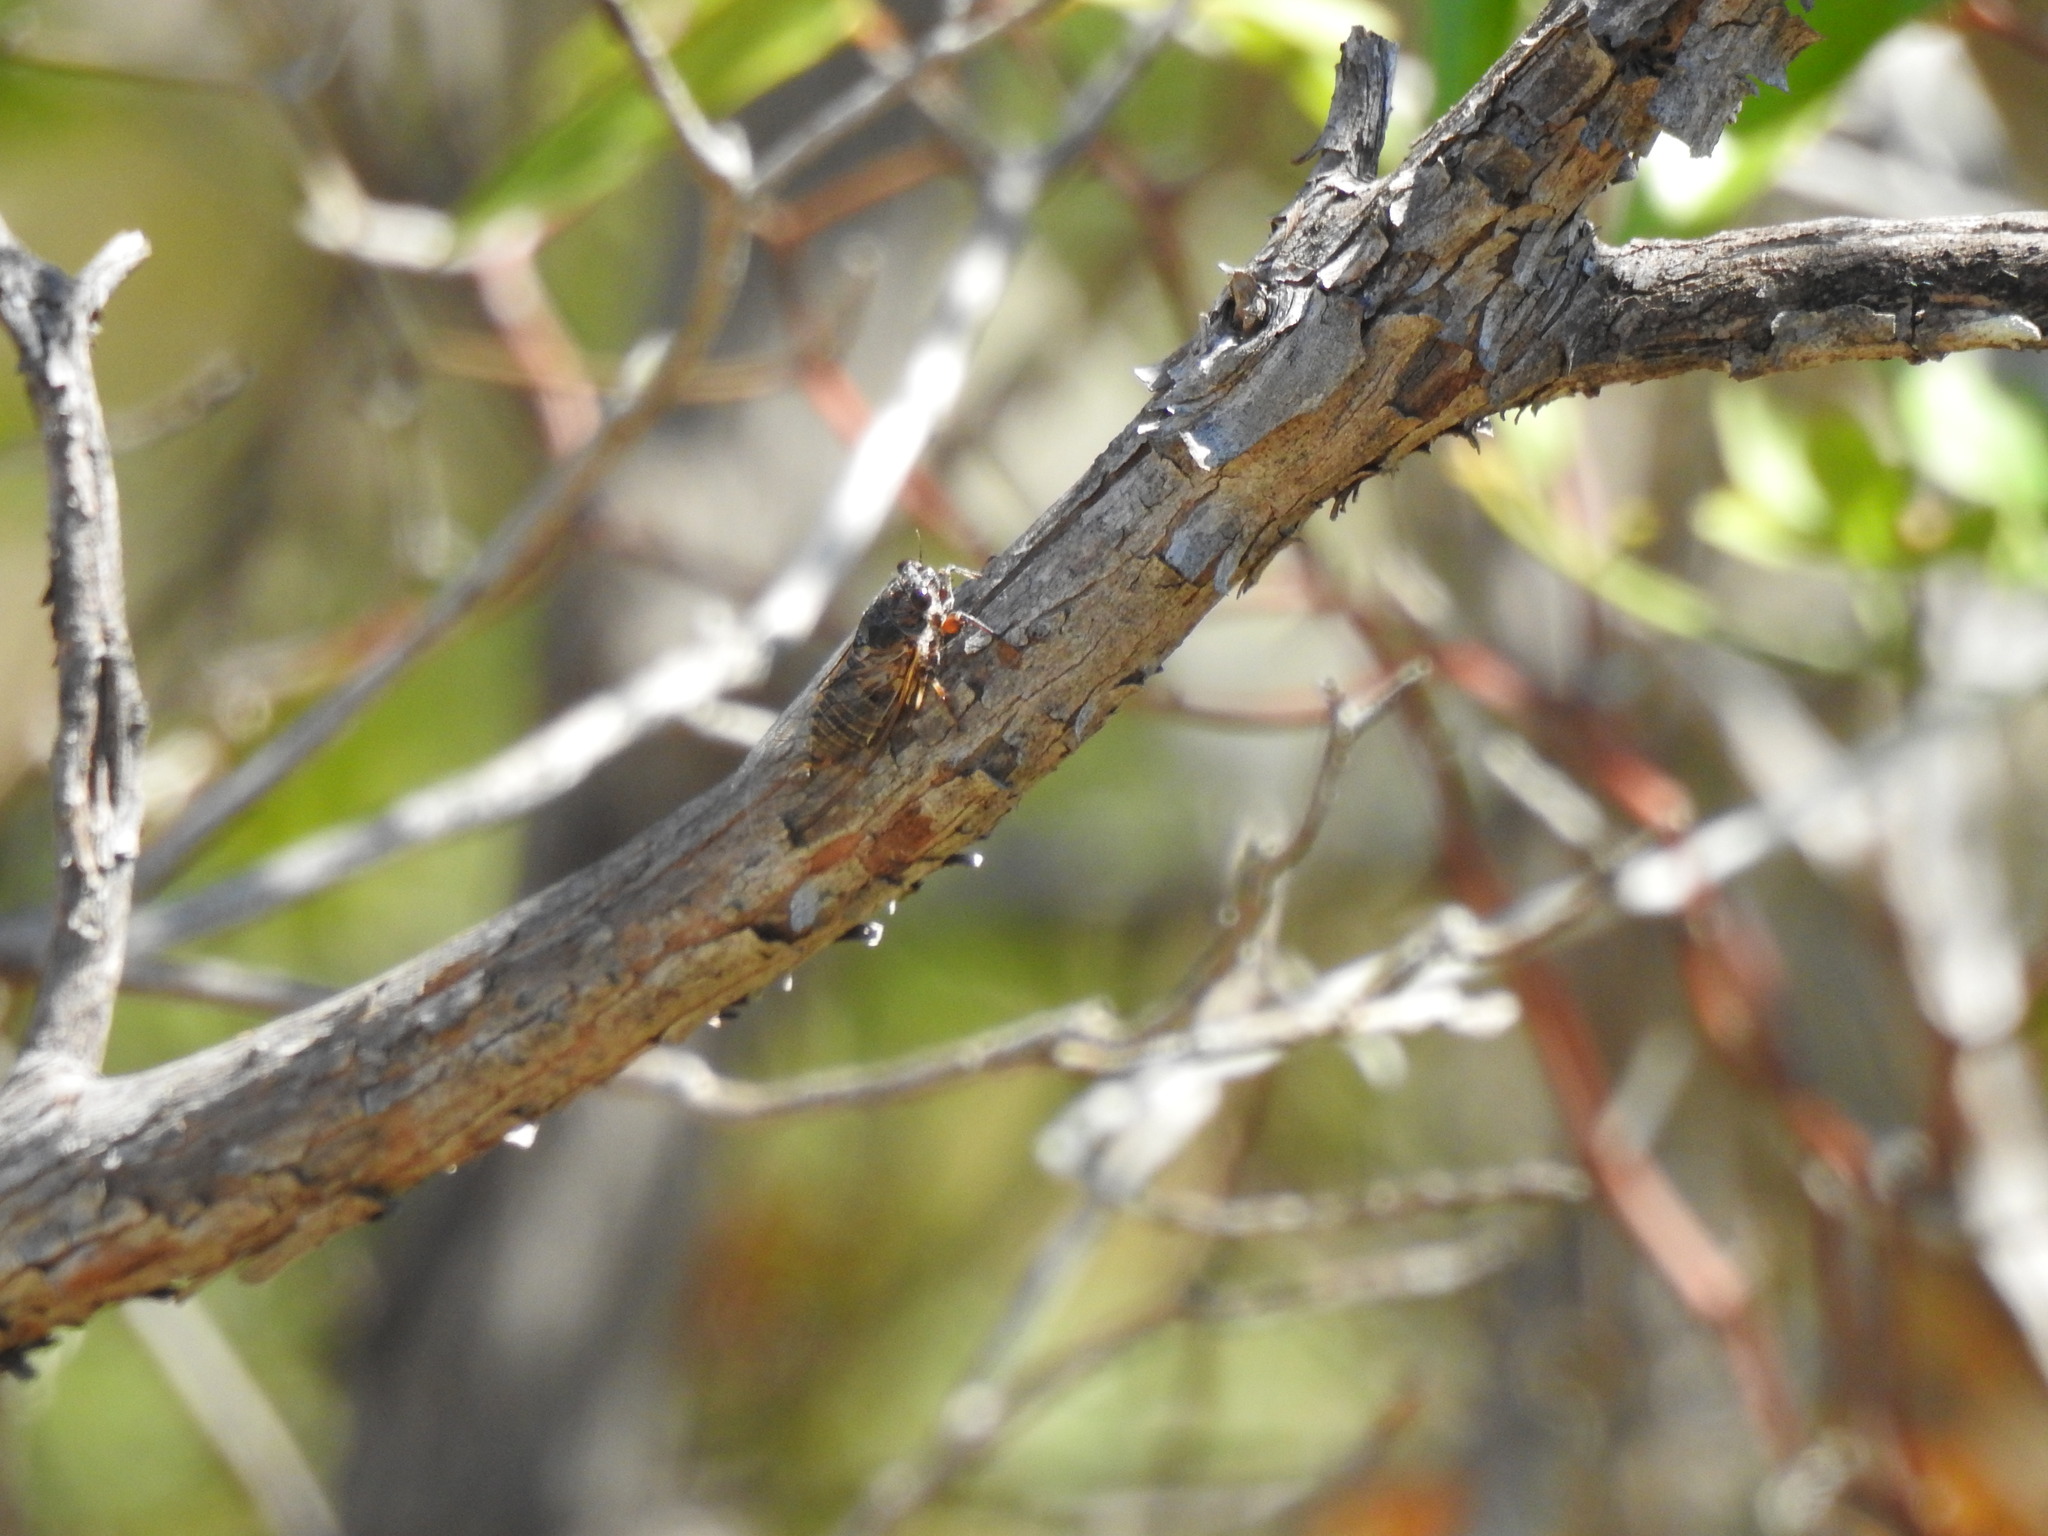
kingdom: Animalia
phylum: Arthropoda
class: Insecta
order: Hemiptera
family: Cicadidae
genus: Tettigettalna
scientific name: Tettigettalna argentata
